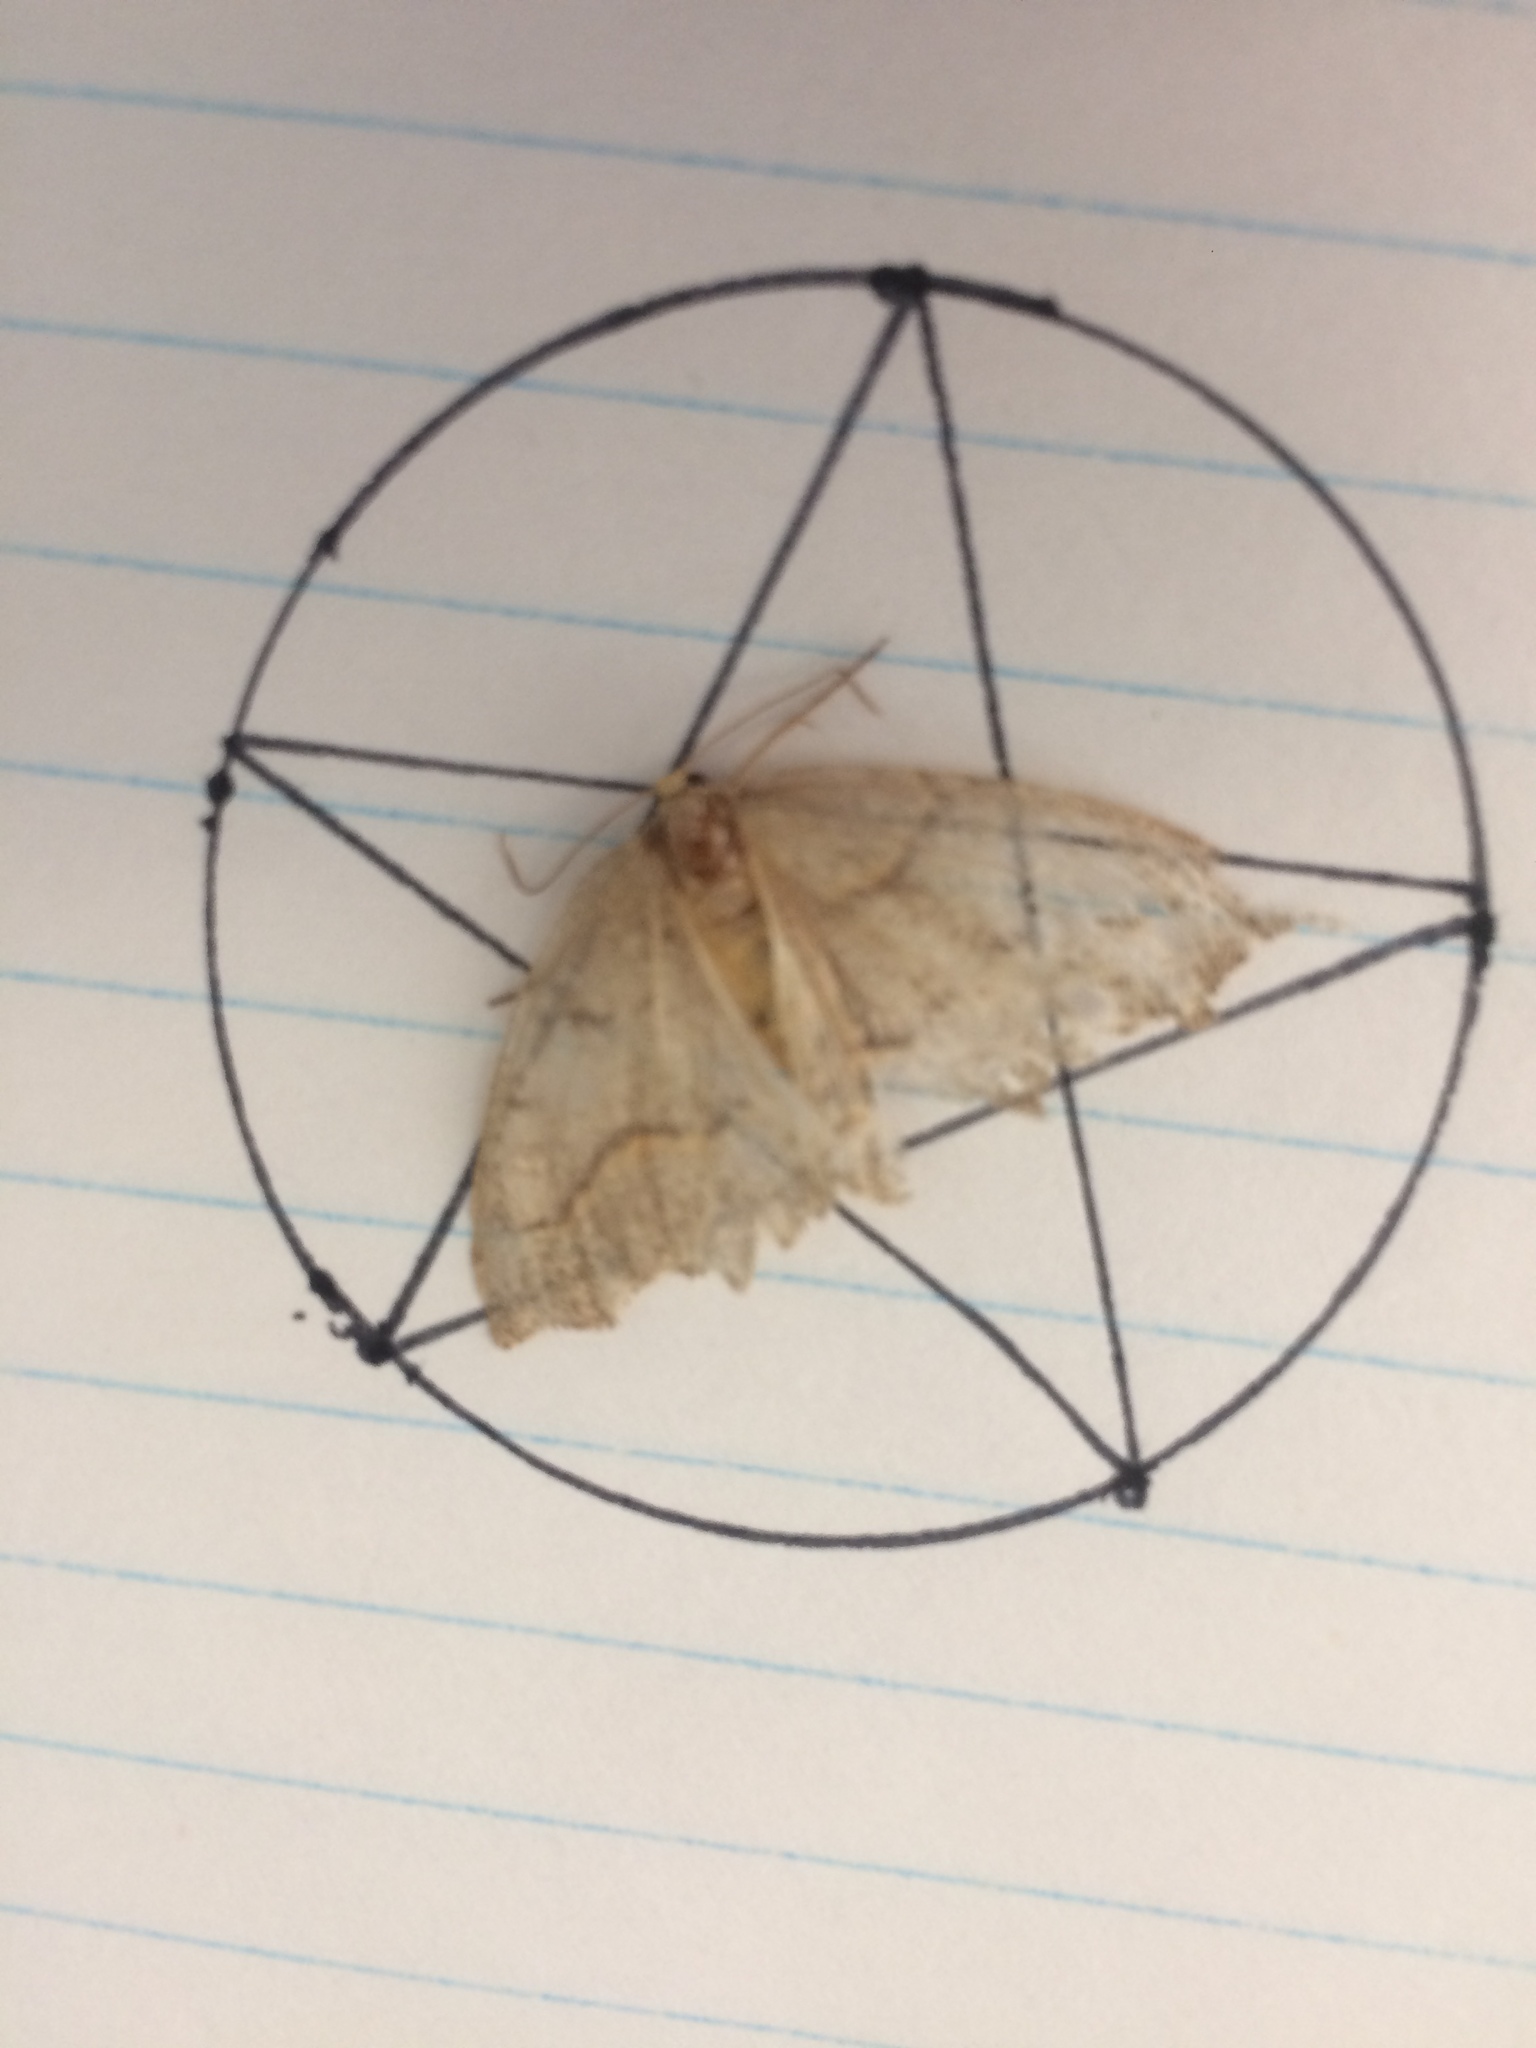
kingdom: Animalia
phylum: Arthropoda
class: Insecta
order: Lepidoptera
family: Geometridae
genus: Lambdina
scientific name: Lambdina fiscellaria
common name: Hemlock looper
